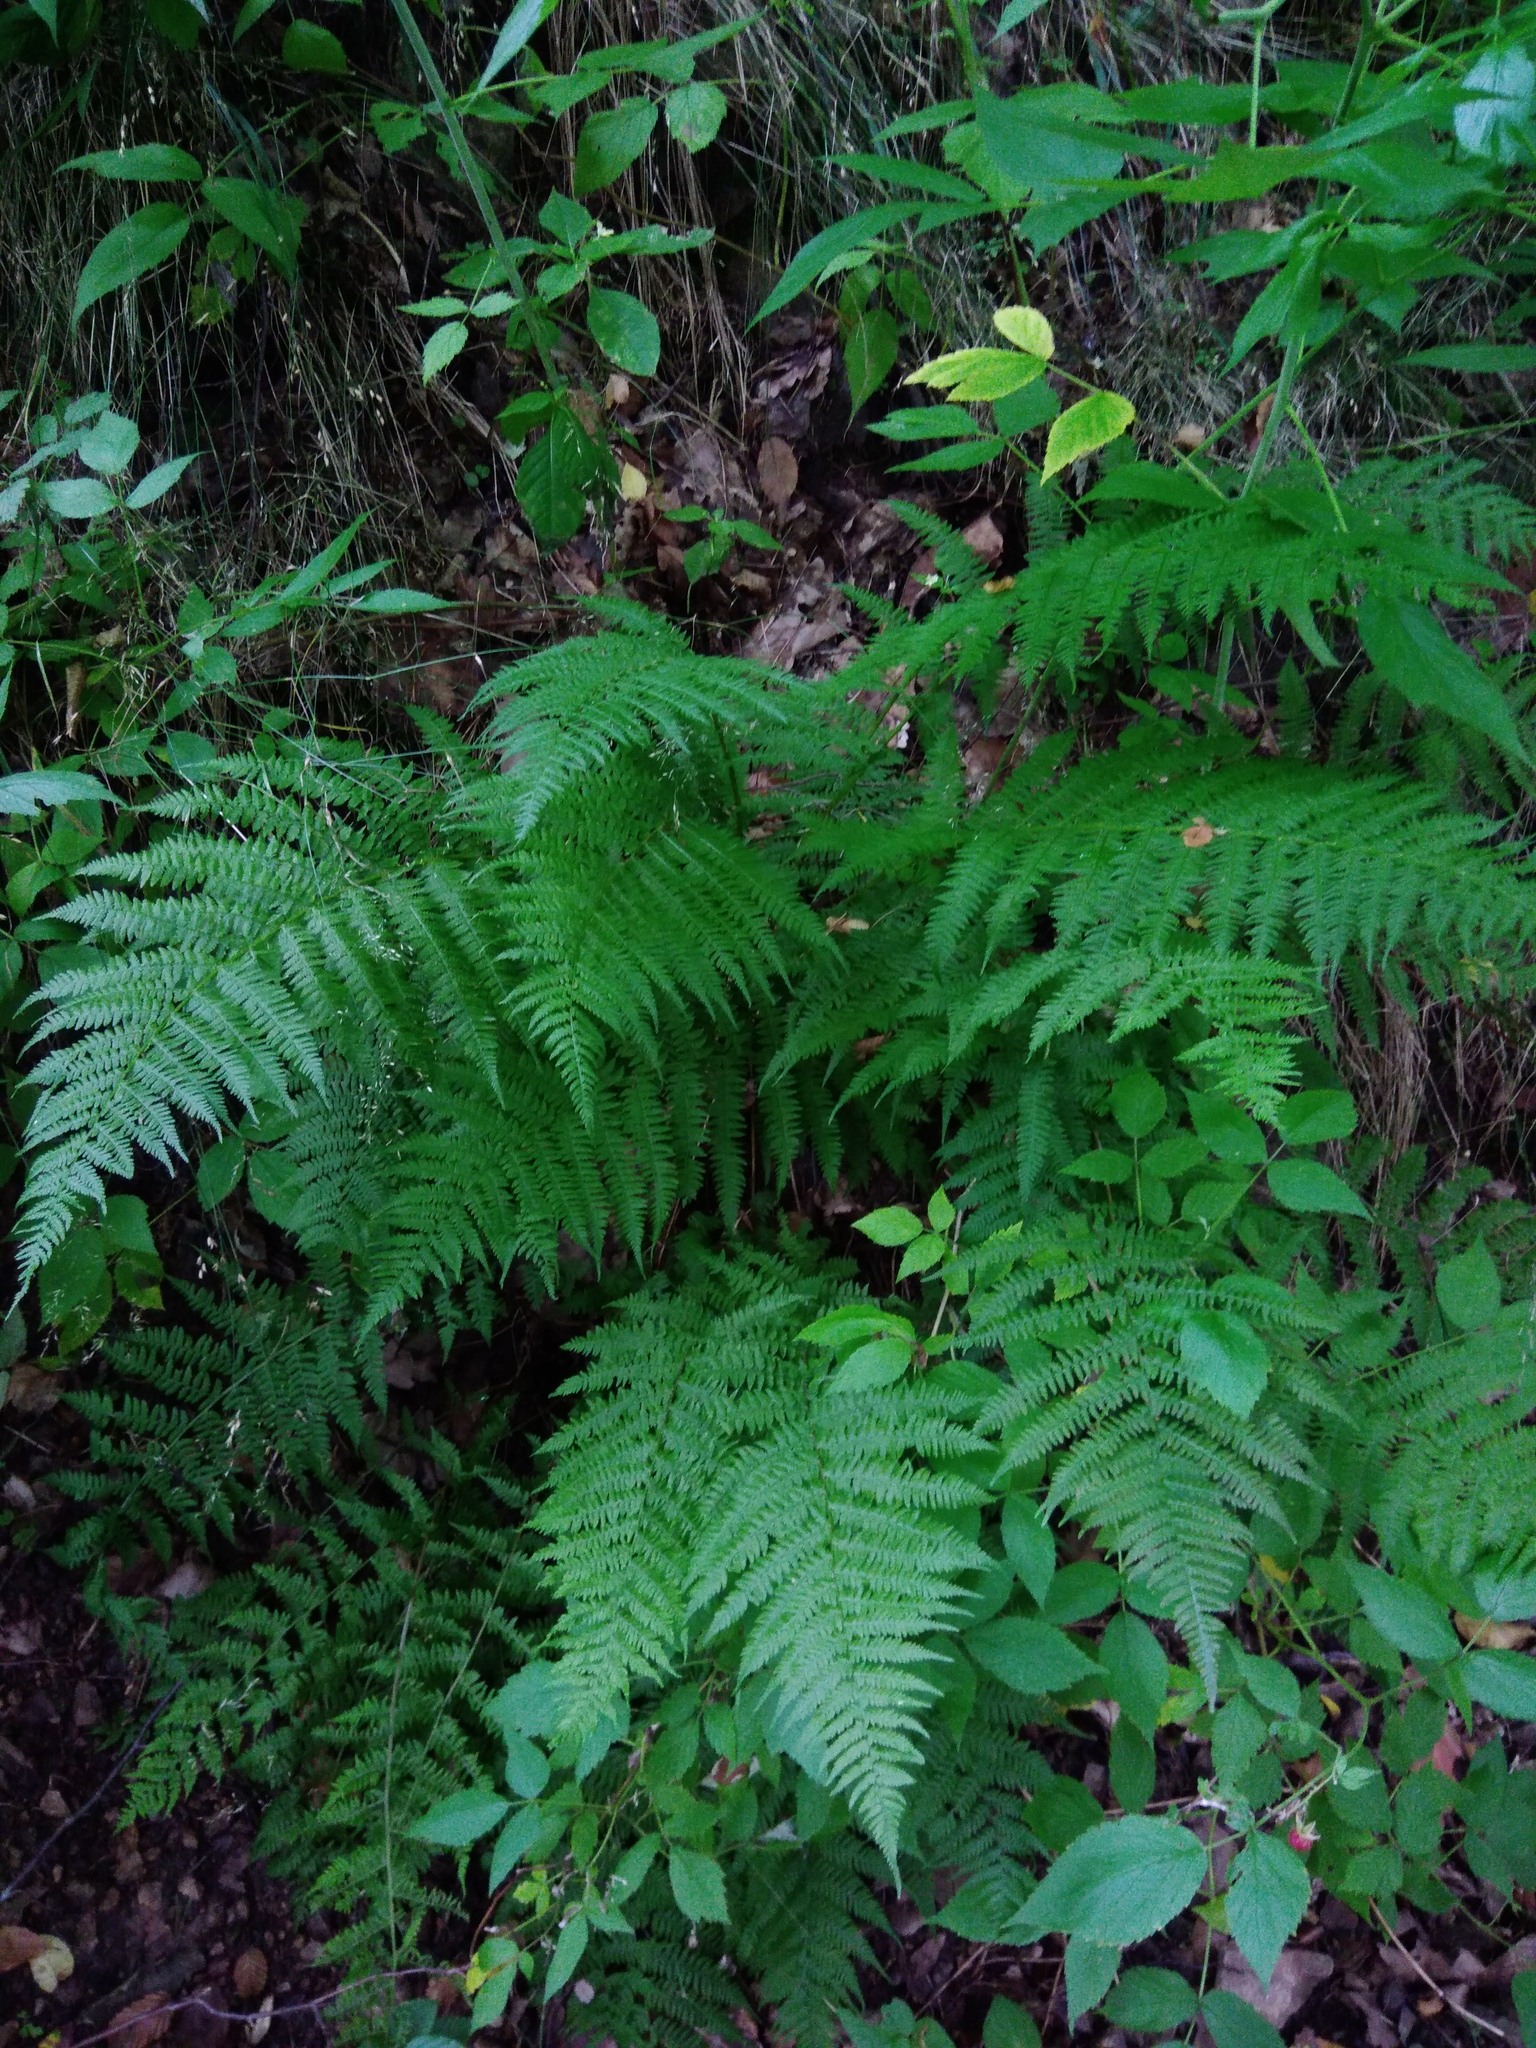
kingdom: Plantae
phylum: Tracheophyta
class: Polypodiopsida
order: Polypodiales
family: Athyriaceae
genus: Athyrium
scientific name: Athyrium filix-femina
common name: Lady fern
